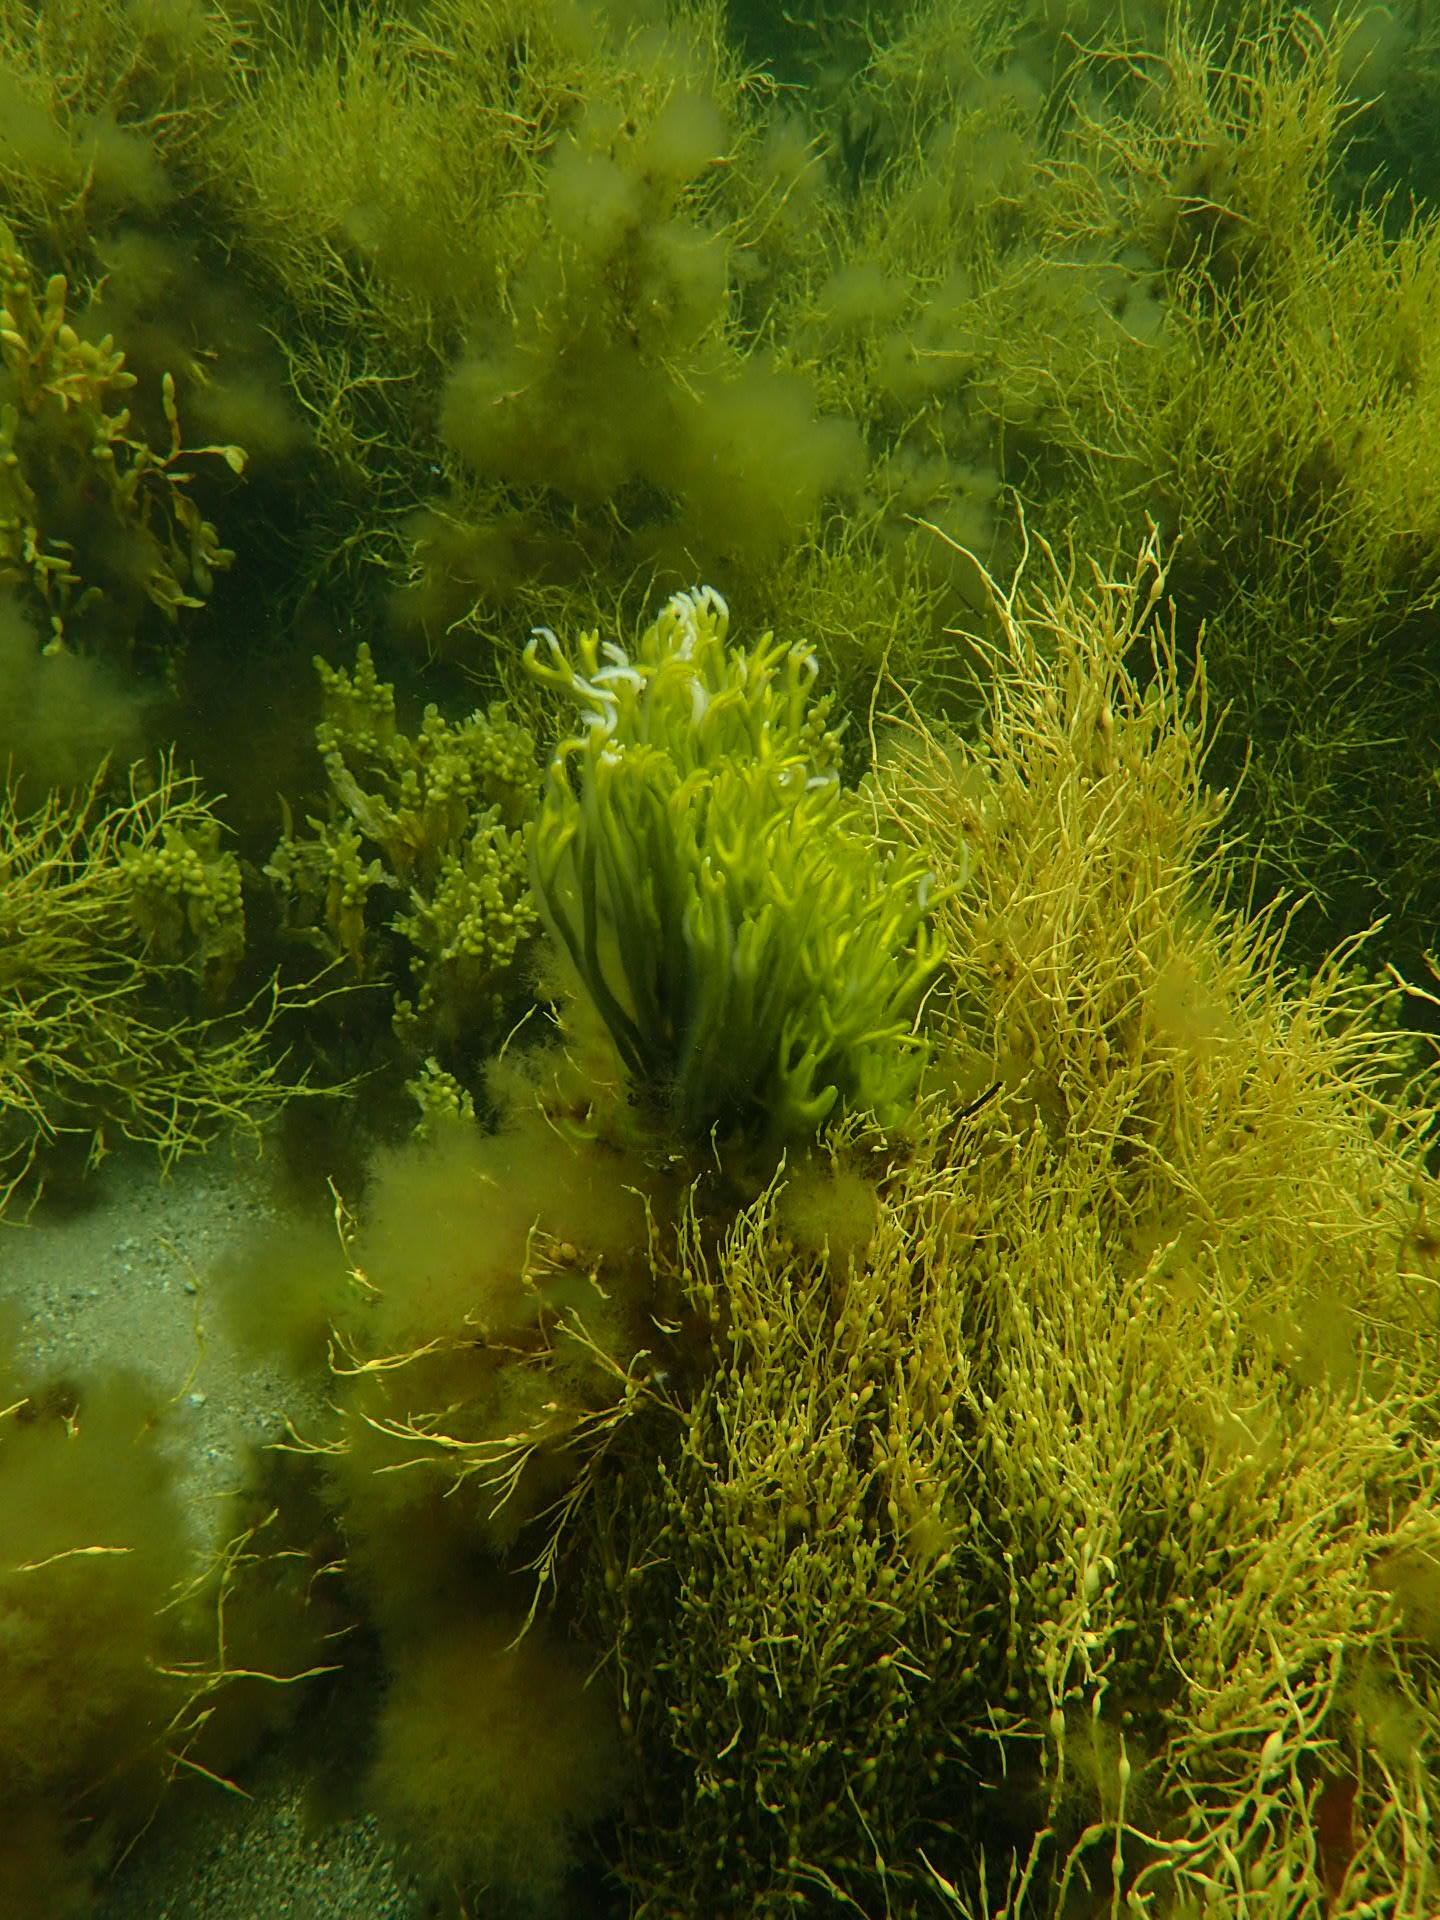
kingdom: Plantae
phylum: Chlorophyta
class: Ulvophyceae
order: Bryopsidales
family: Codiaceae
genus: Codium
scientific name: Codium fragile
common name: Dead man's fingers
